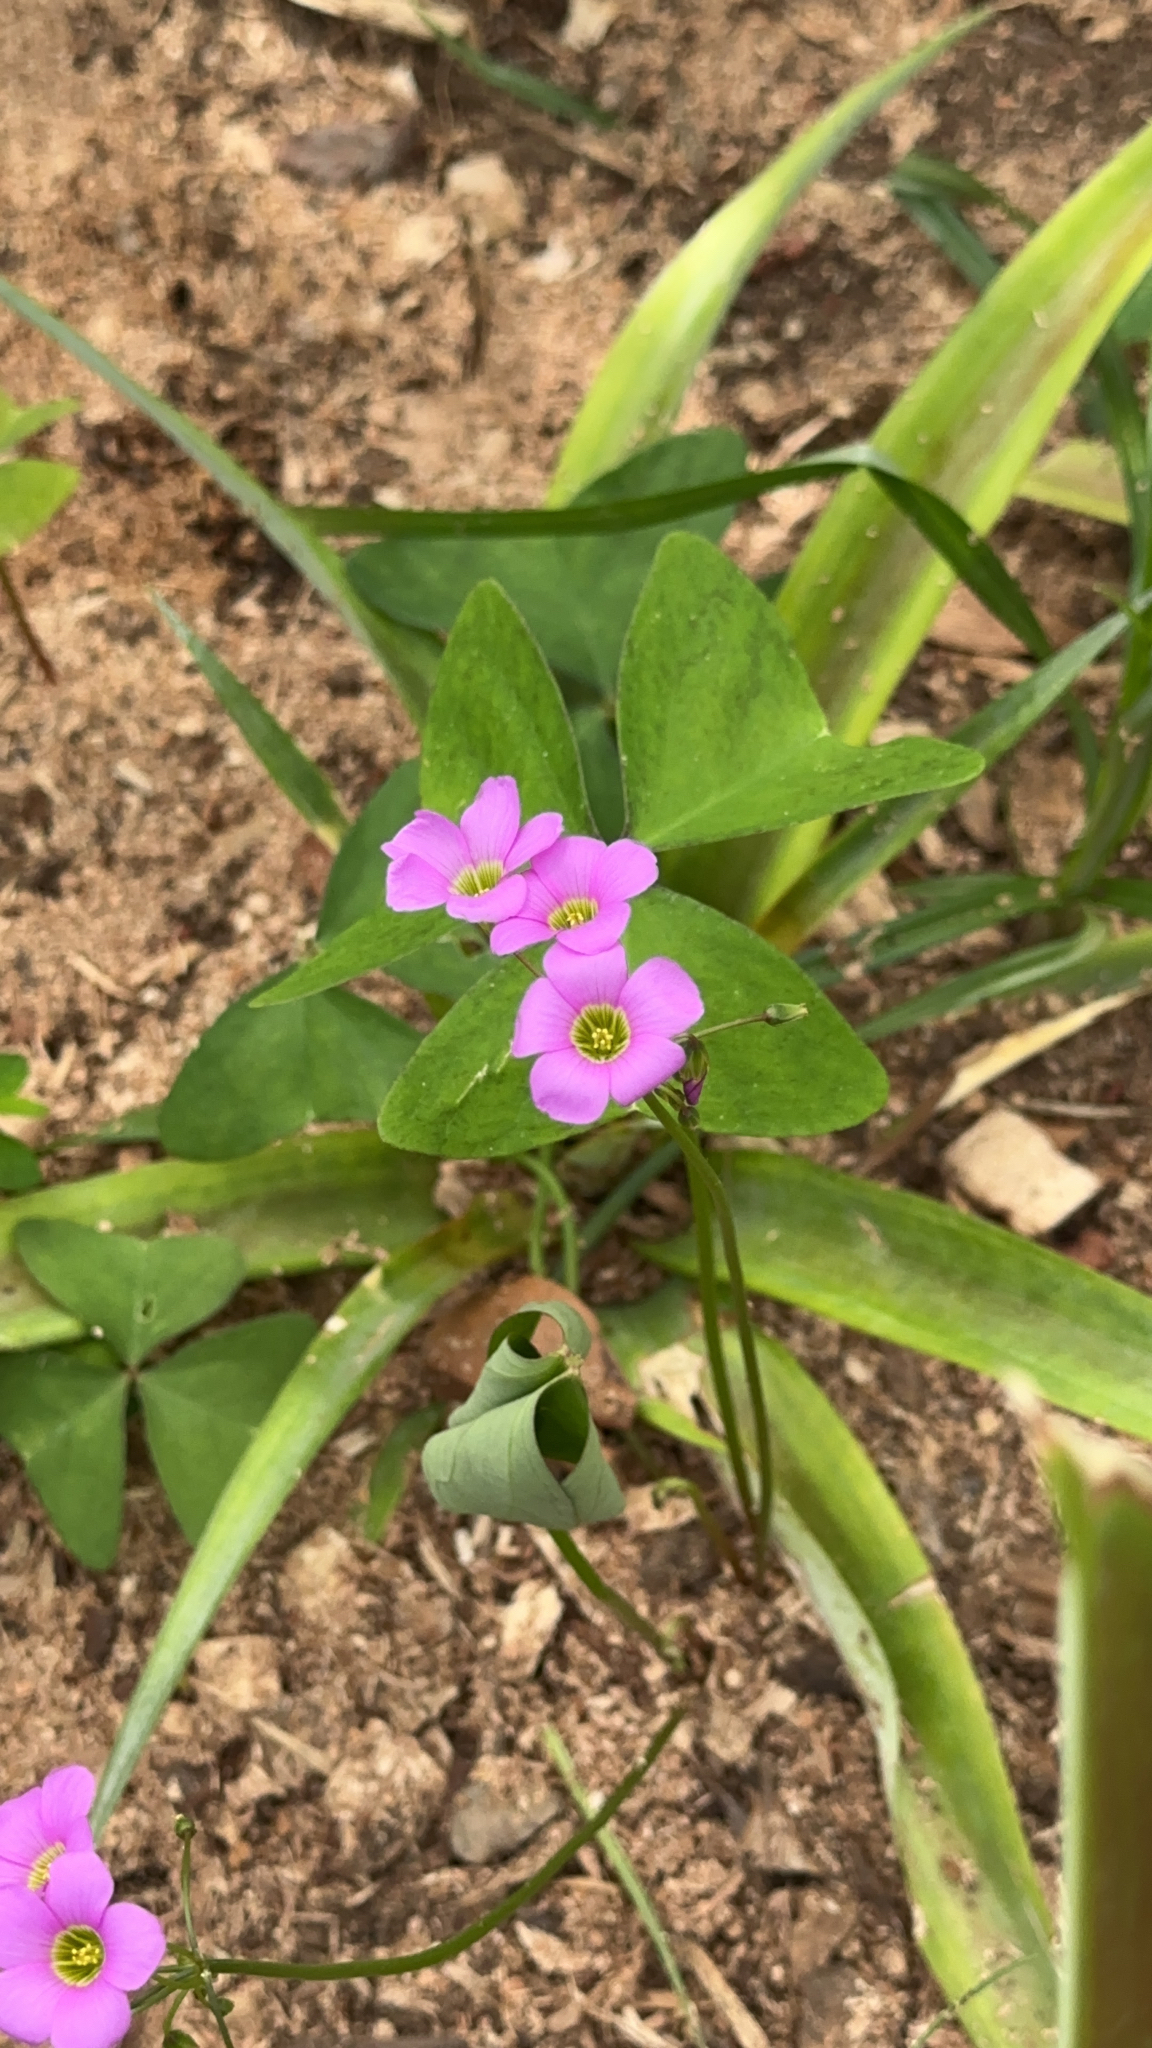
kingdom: Plantae
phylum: Tracheophyta
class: Magnoliopsida
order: Oxalidales
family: Oxalidaceae
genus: Oxalis
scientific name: Oxalis latifolia
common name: Garden pink-sorrel
